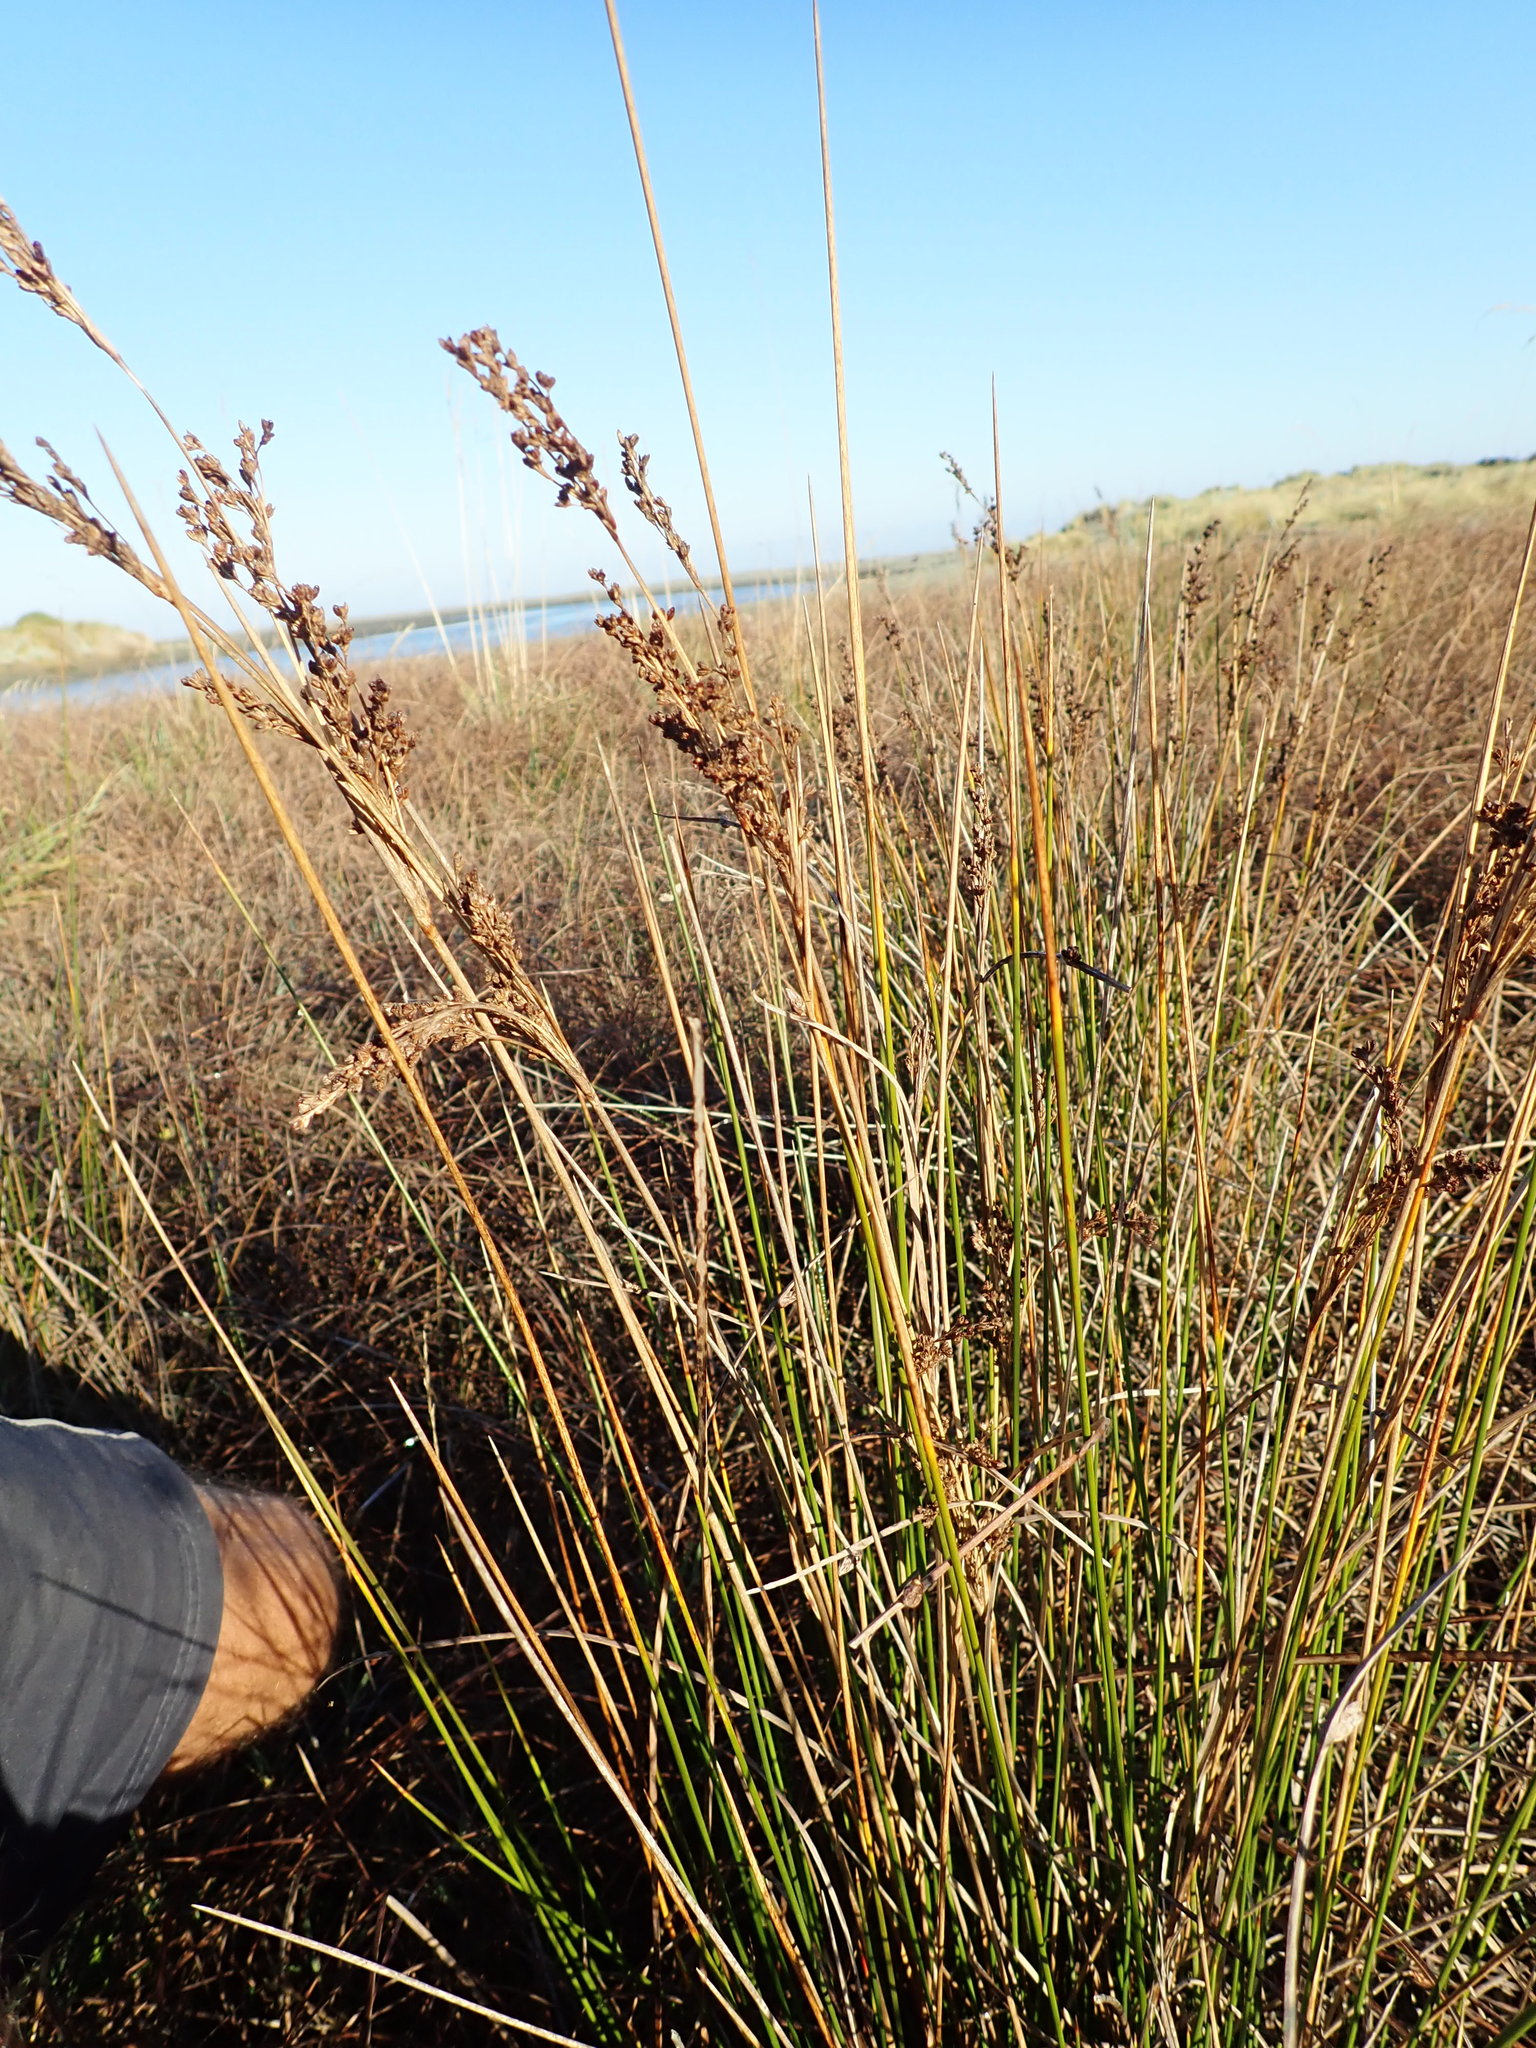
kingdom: Plantae
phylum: Tracheophyta
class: Liliopsida
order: Poales
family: Juncaceae
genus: Juncus
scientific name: Juncus kraussii
